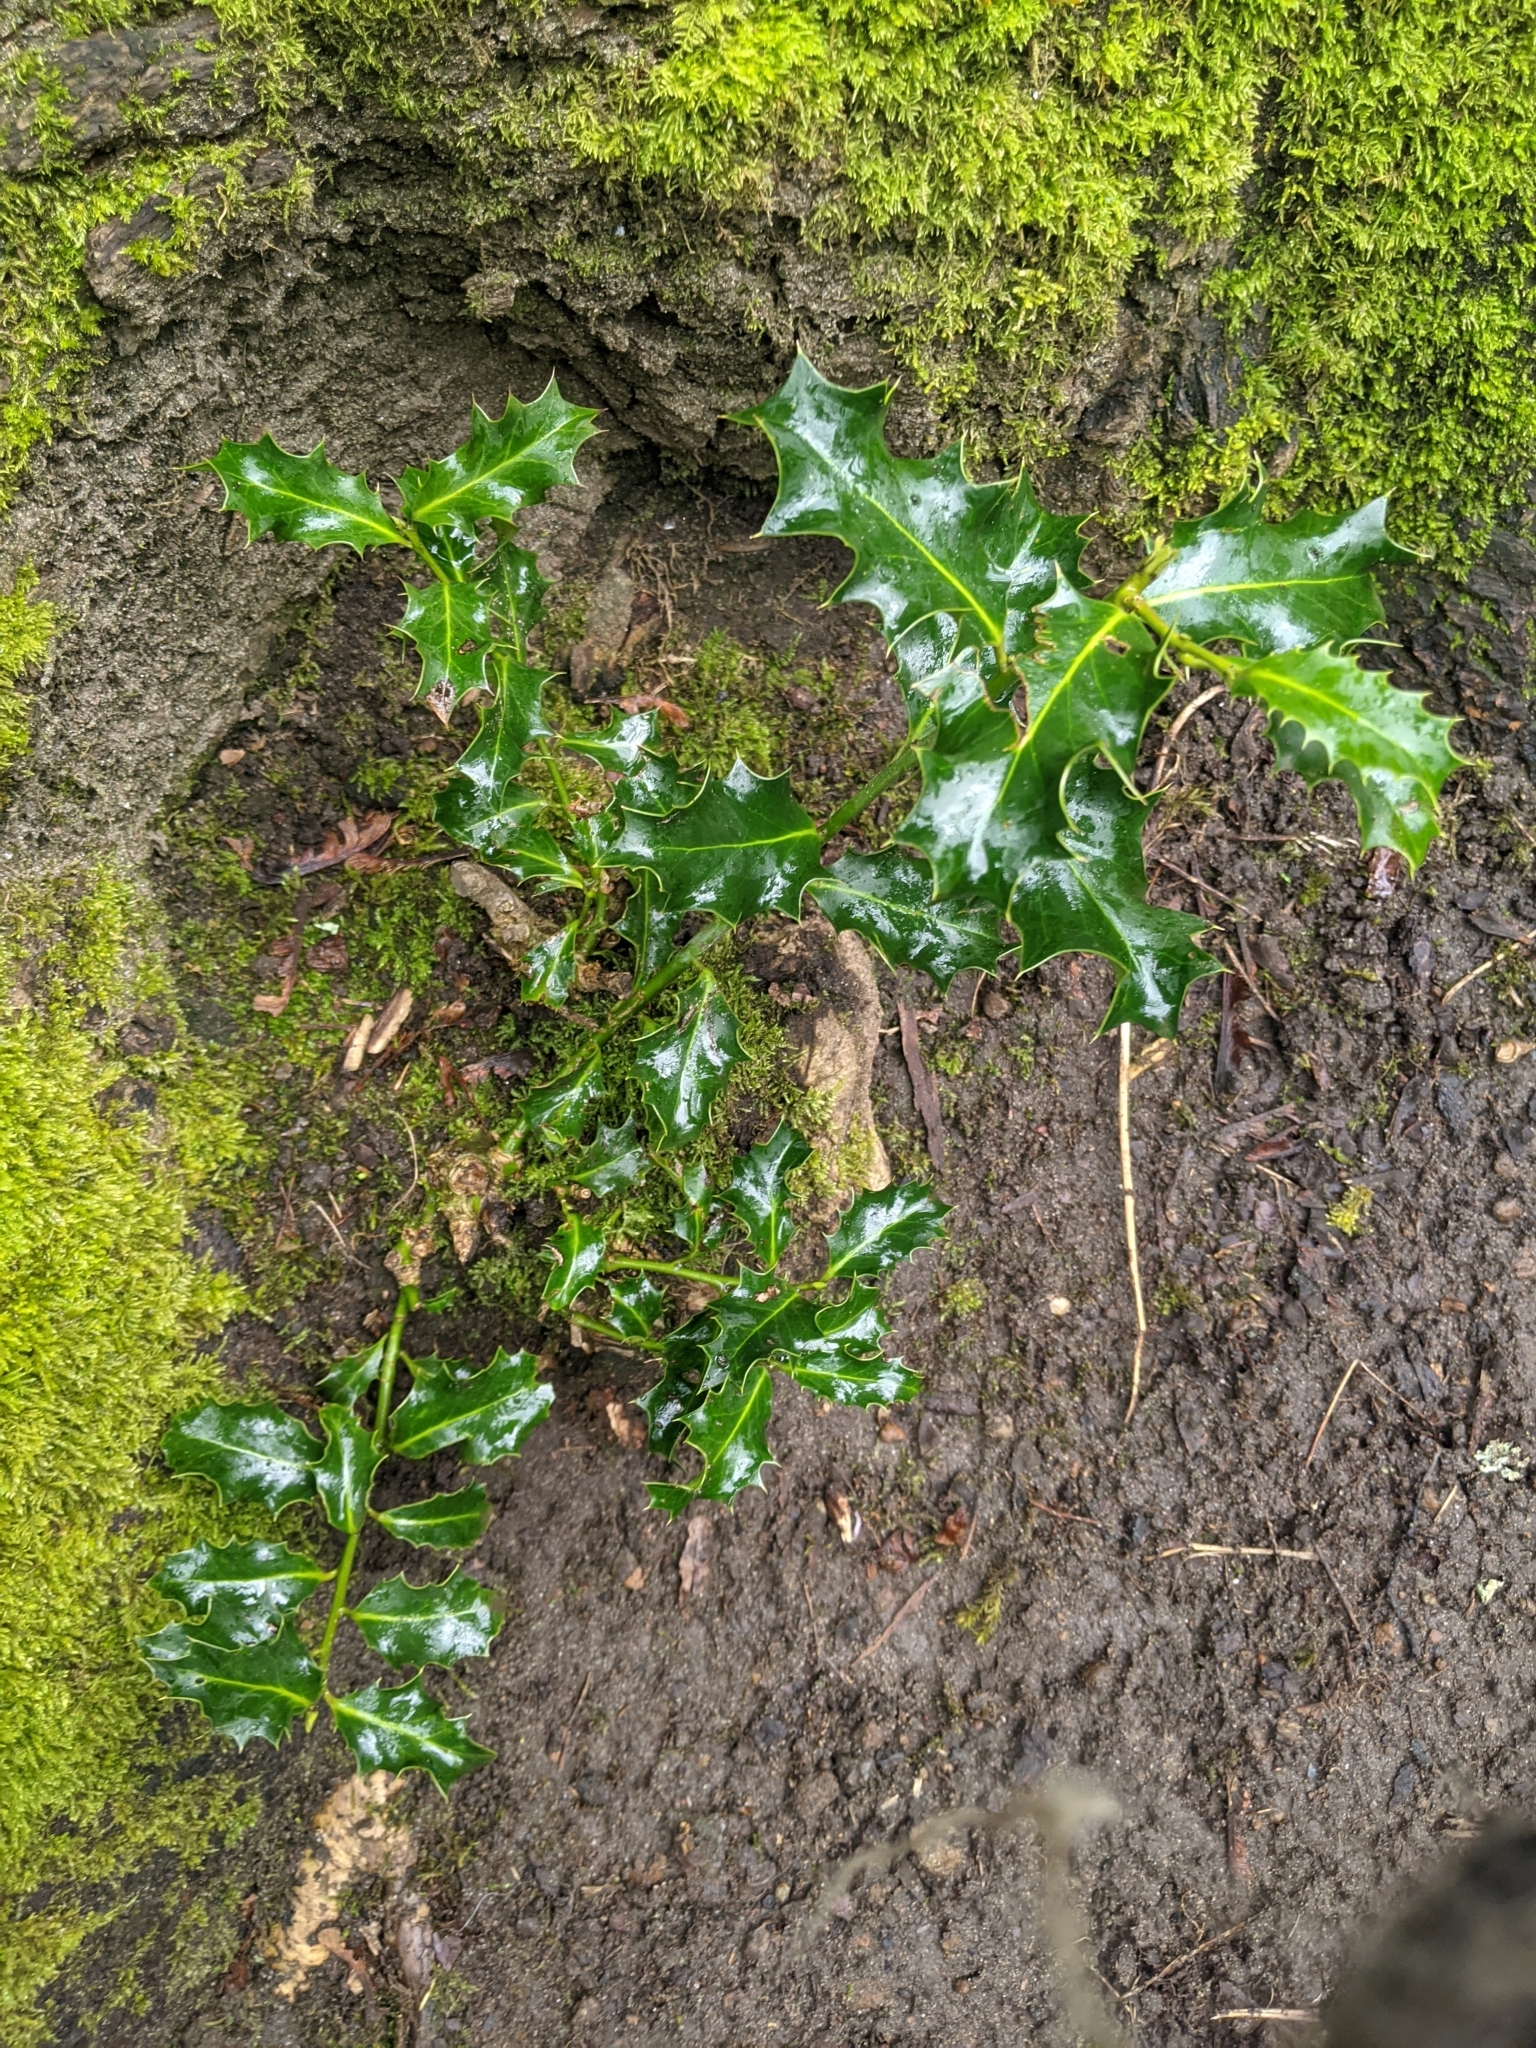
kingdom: Plantae
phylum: Tracheophyta
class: Magnoliopsida
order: Aquifoliales
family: Aquifoliaceae
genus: Ilex
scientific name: Ilex aquifolium
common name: English holly
